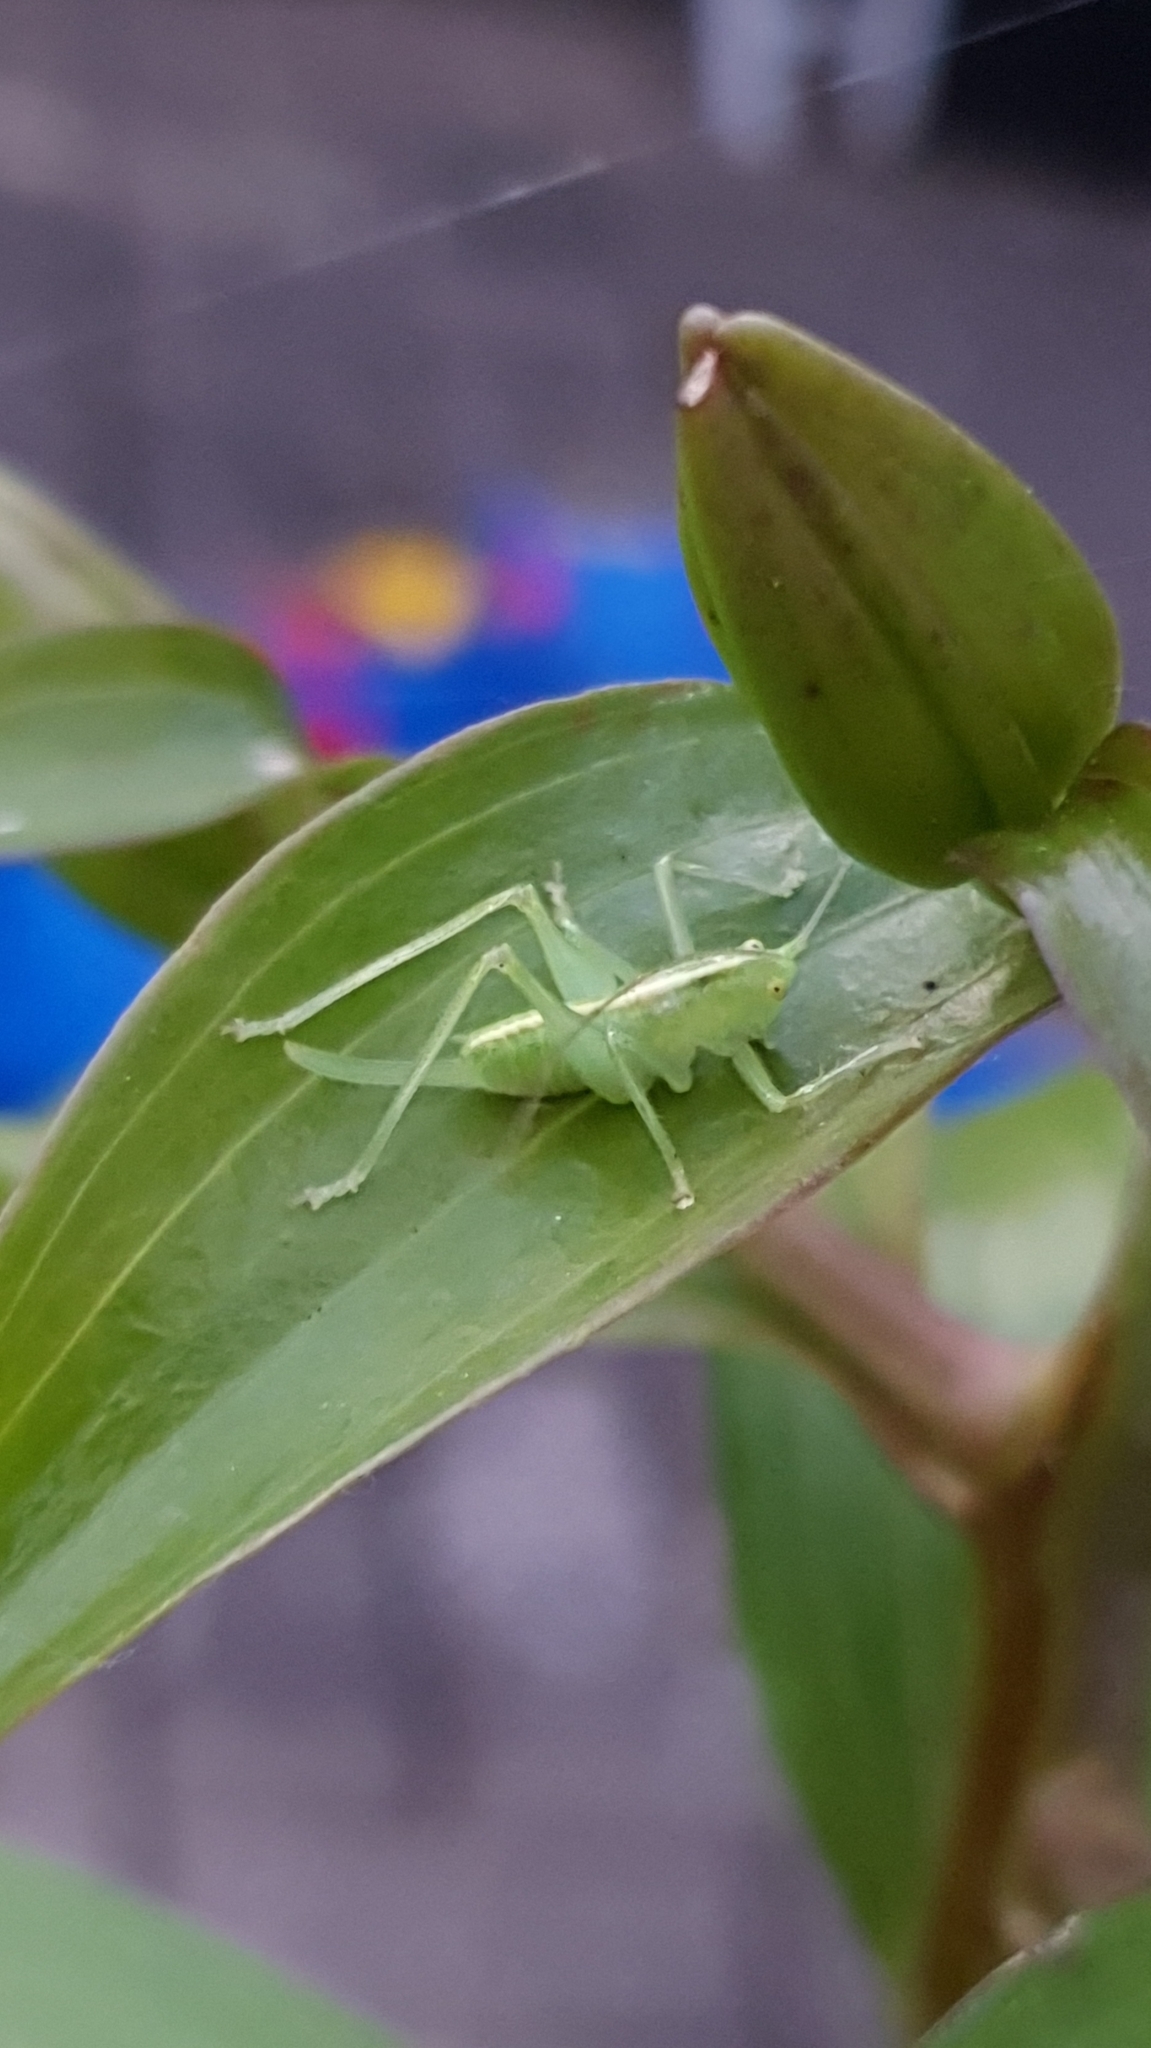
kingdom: Animalia
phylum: Arthropoda
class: Insecta
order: Orthoptera
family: Tettigoniidae
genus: Meconema
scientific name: Meconema meridionale
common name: Southern oak bush-cricket
